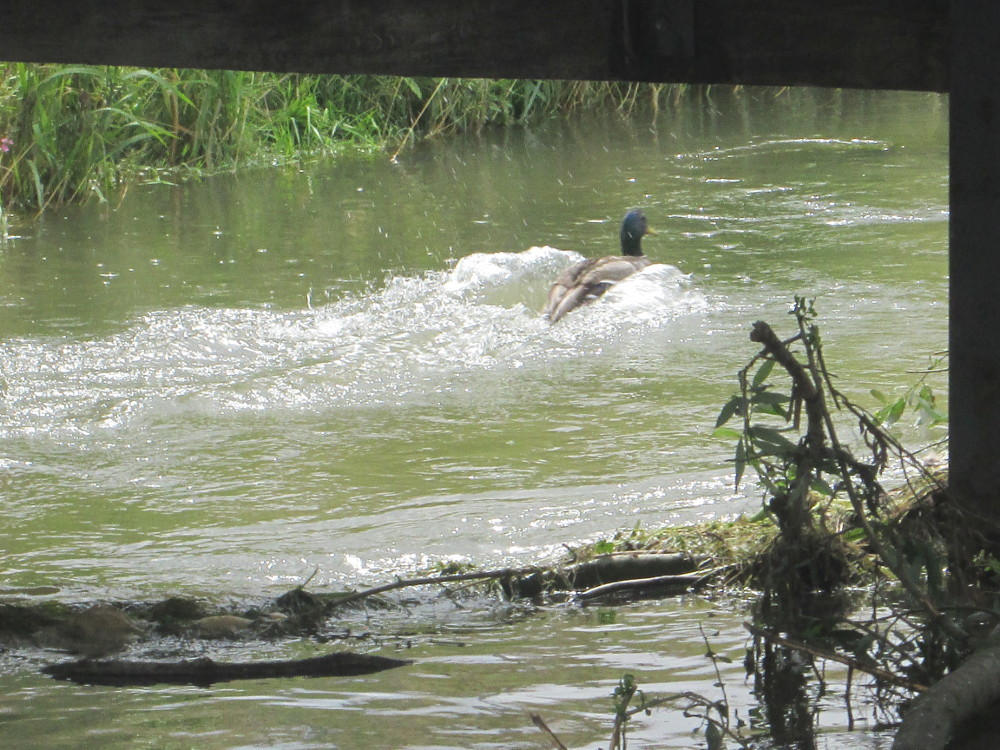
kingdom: Animalia
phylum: Chordata
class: Aves
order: Anseriformes
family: Anatidae
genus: Anas
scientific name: Anas platyrhynchos
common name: Mallard
